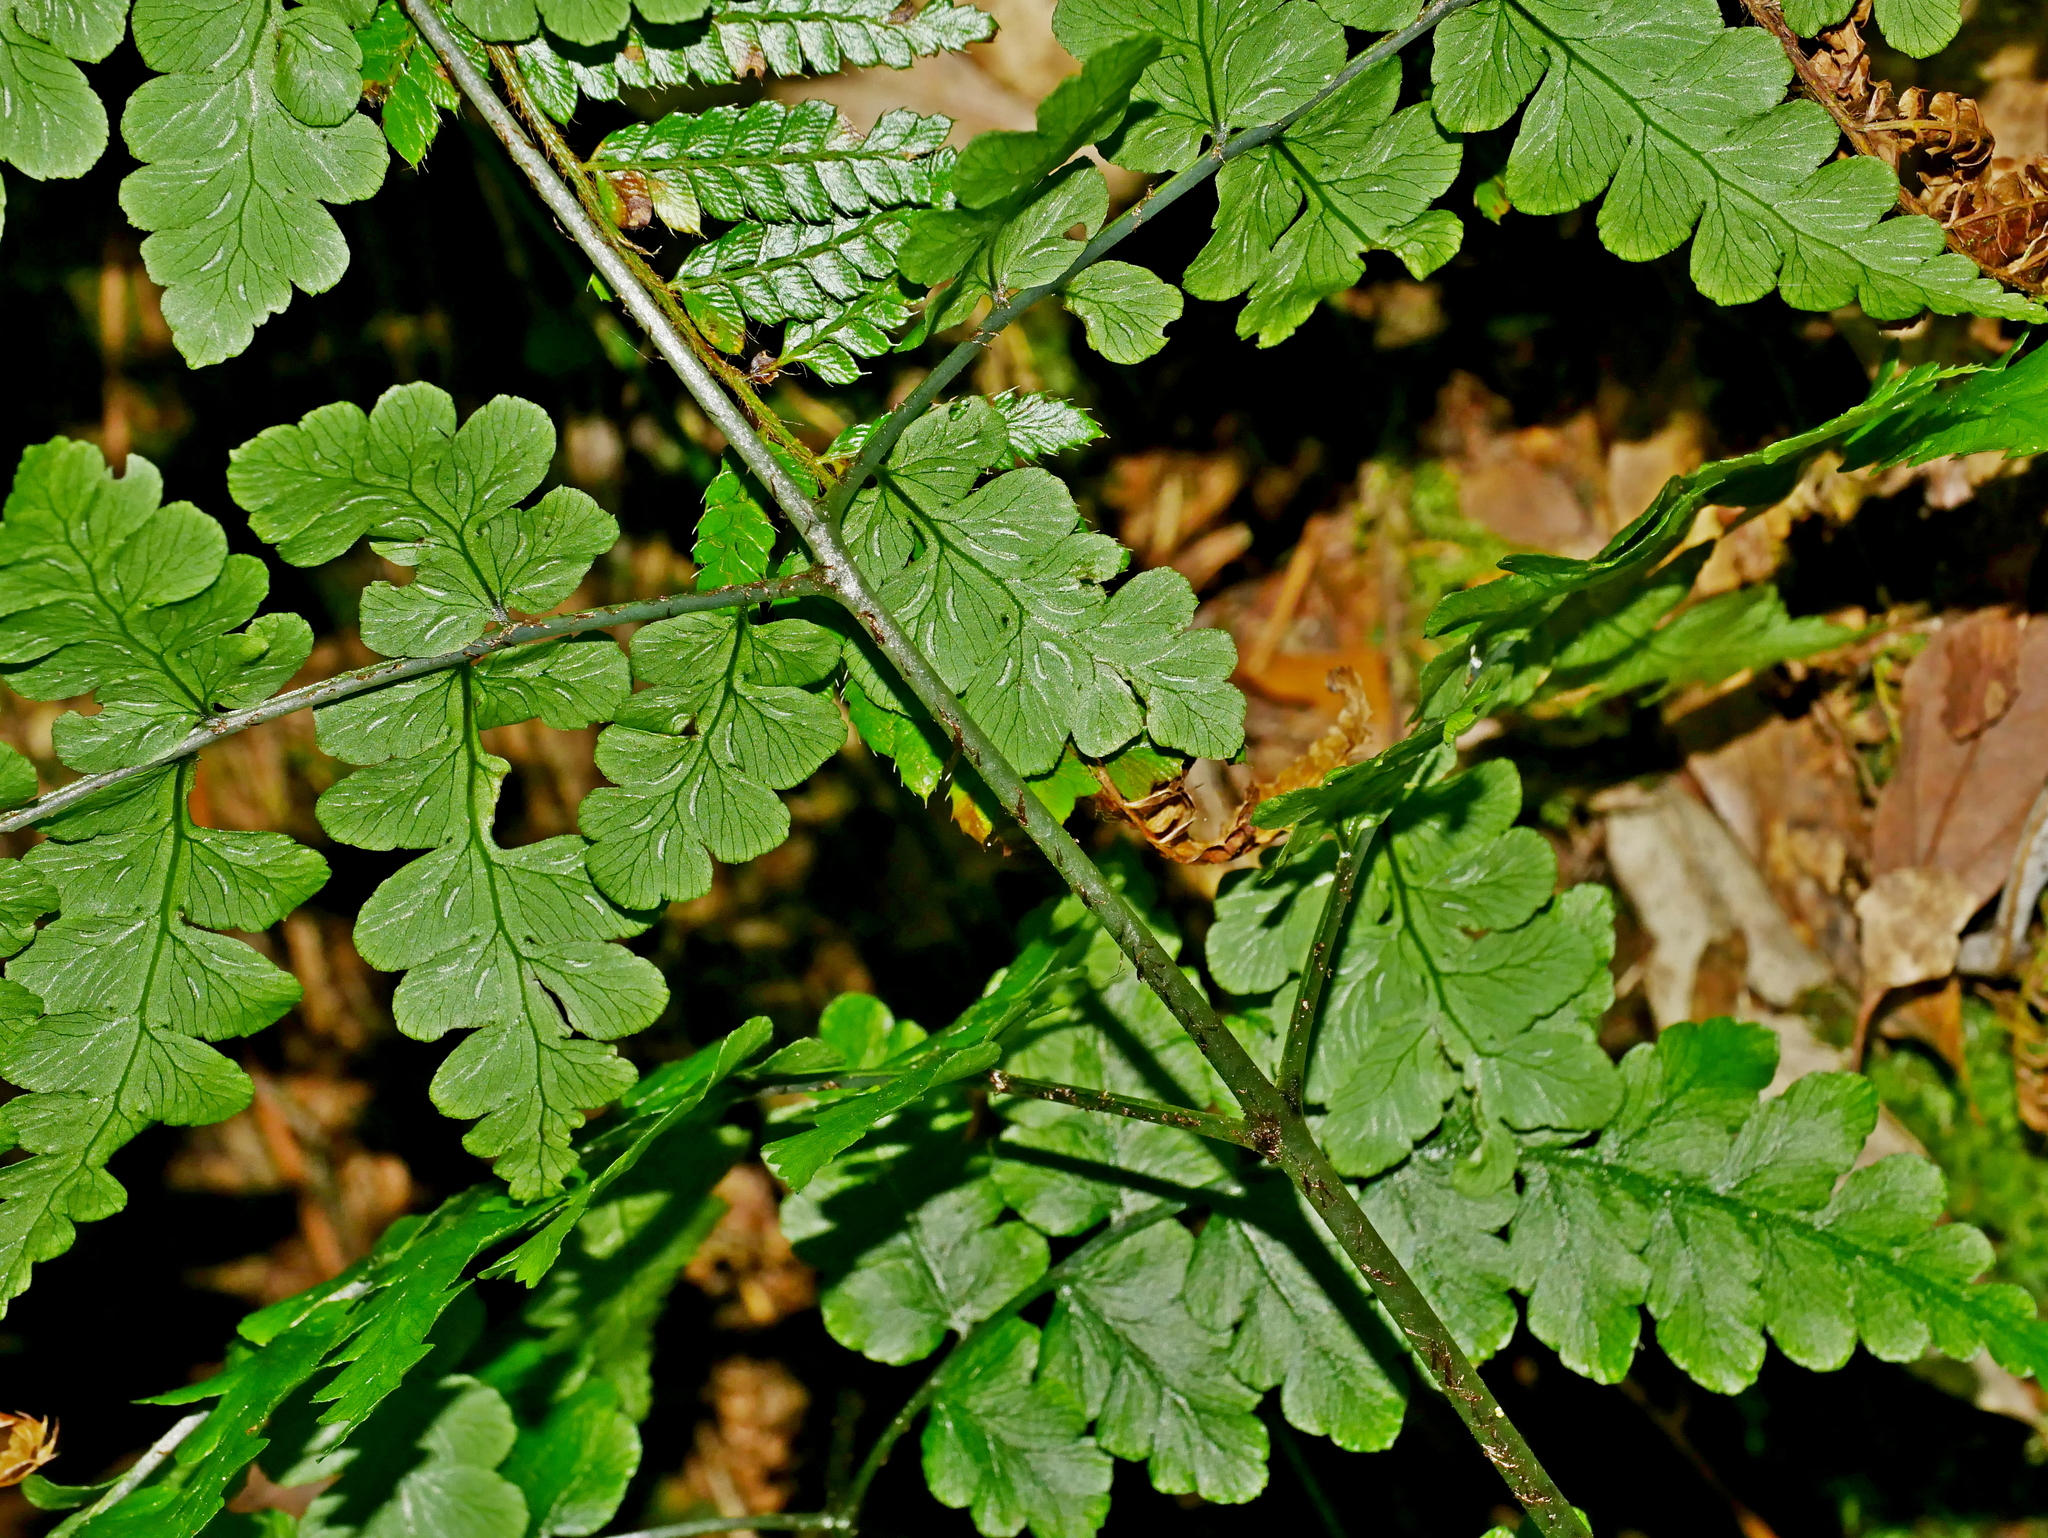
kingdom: Plantae
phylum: Tracheophyta
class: Polypodiopsida
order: Polypodiales
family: Athyriaceae
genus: Diplazium
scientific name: Diplazium squamigerum
